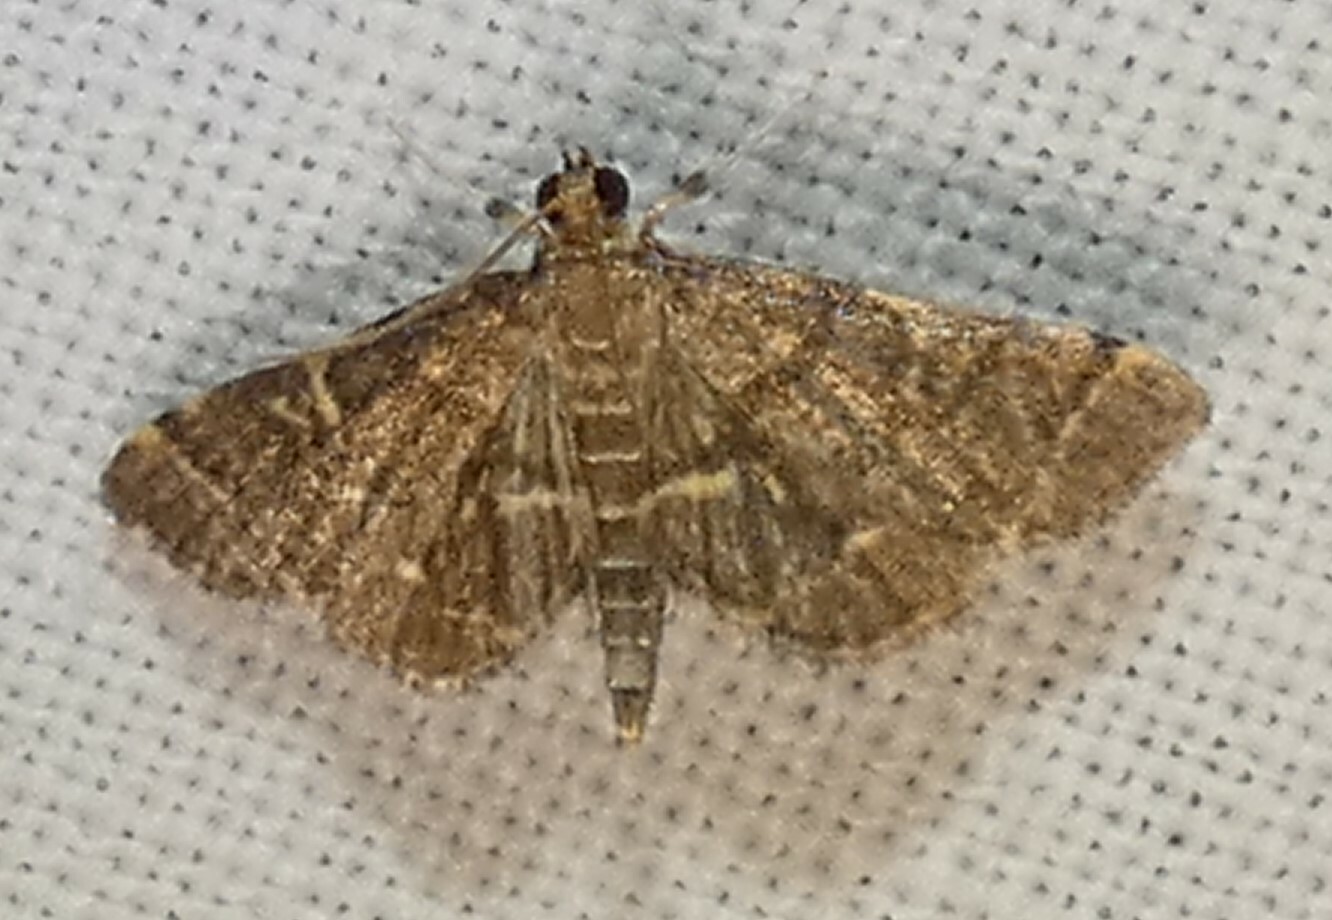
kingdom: Animalia
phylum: Arthropoda
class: Insecta
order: Lepidoptera
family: Crambidae
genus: Anageshna
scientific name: Anageshna primordialis
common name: Yellow-spotted webworm moth
